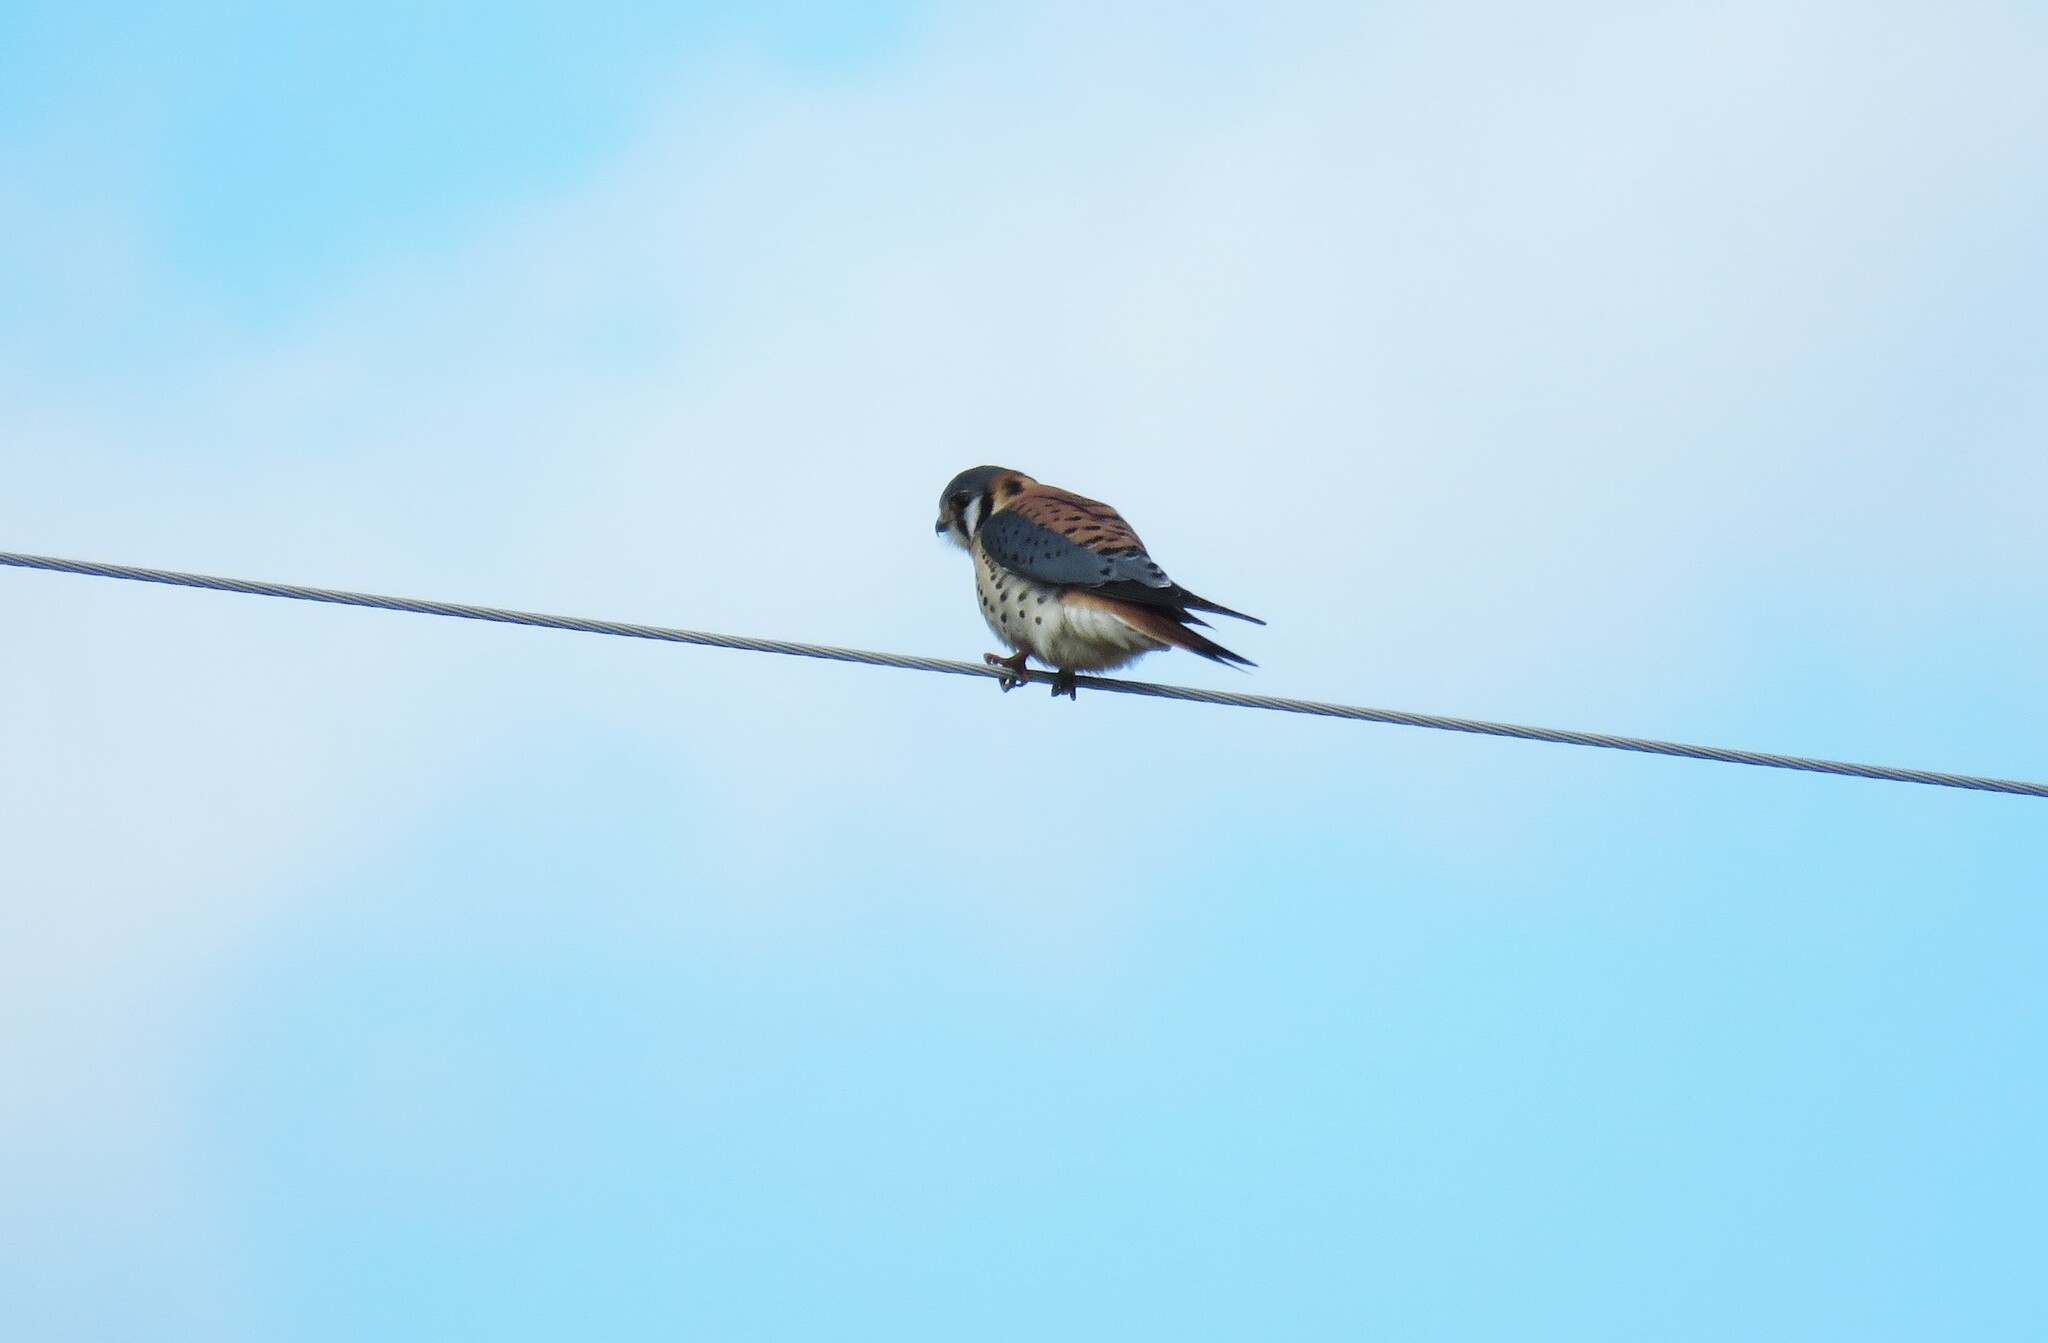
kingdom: Animalia
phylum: Chordata
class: Aves
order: Falconiformes
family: Falconidae
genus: Falco
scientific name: Falco sparverius
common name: American kestrel
